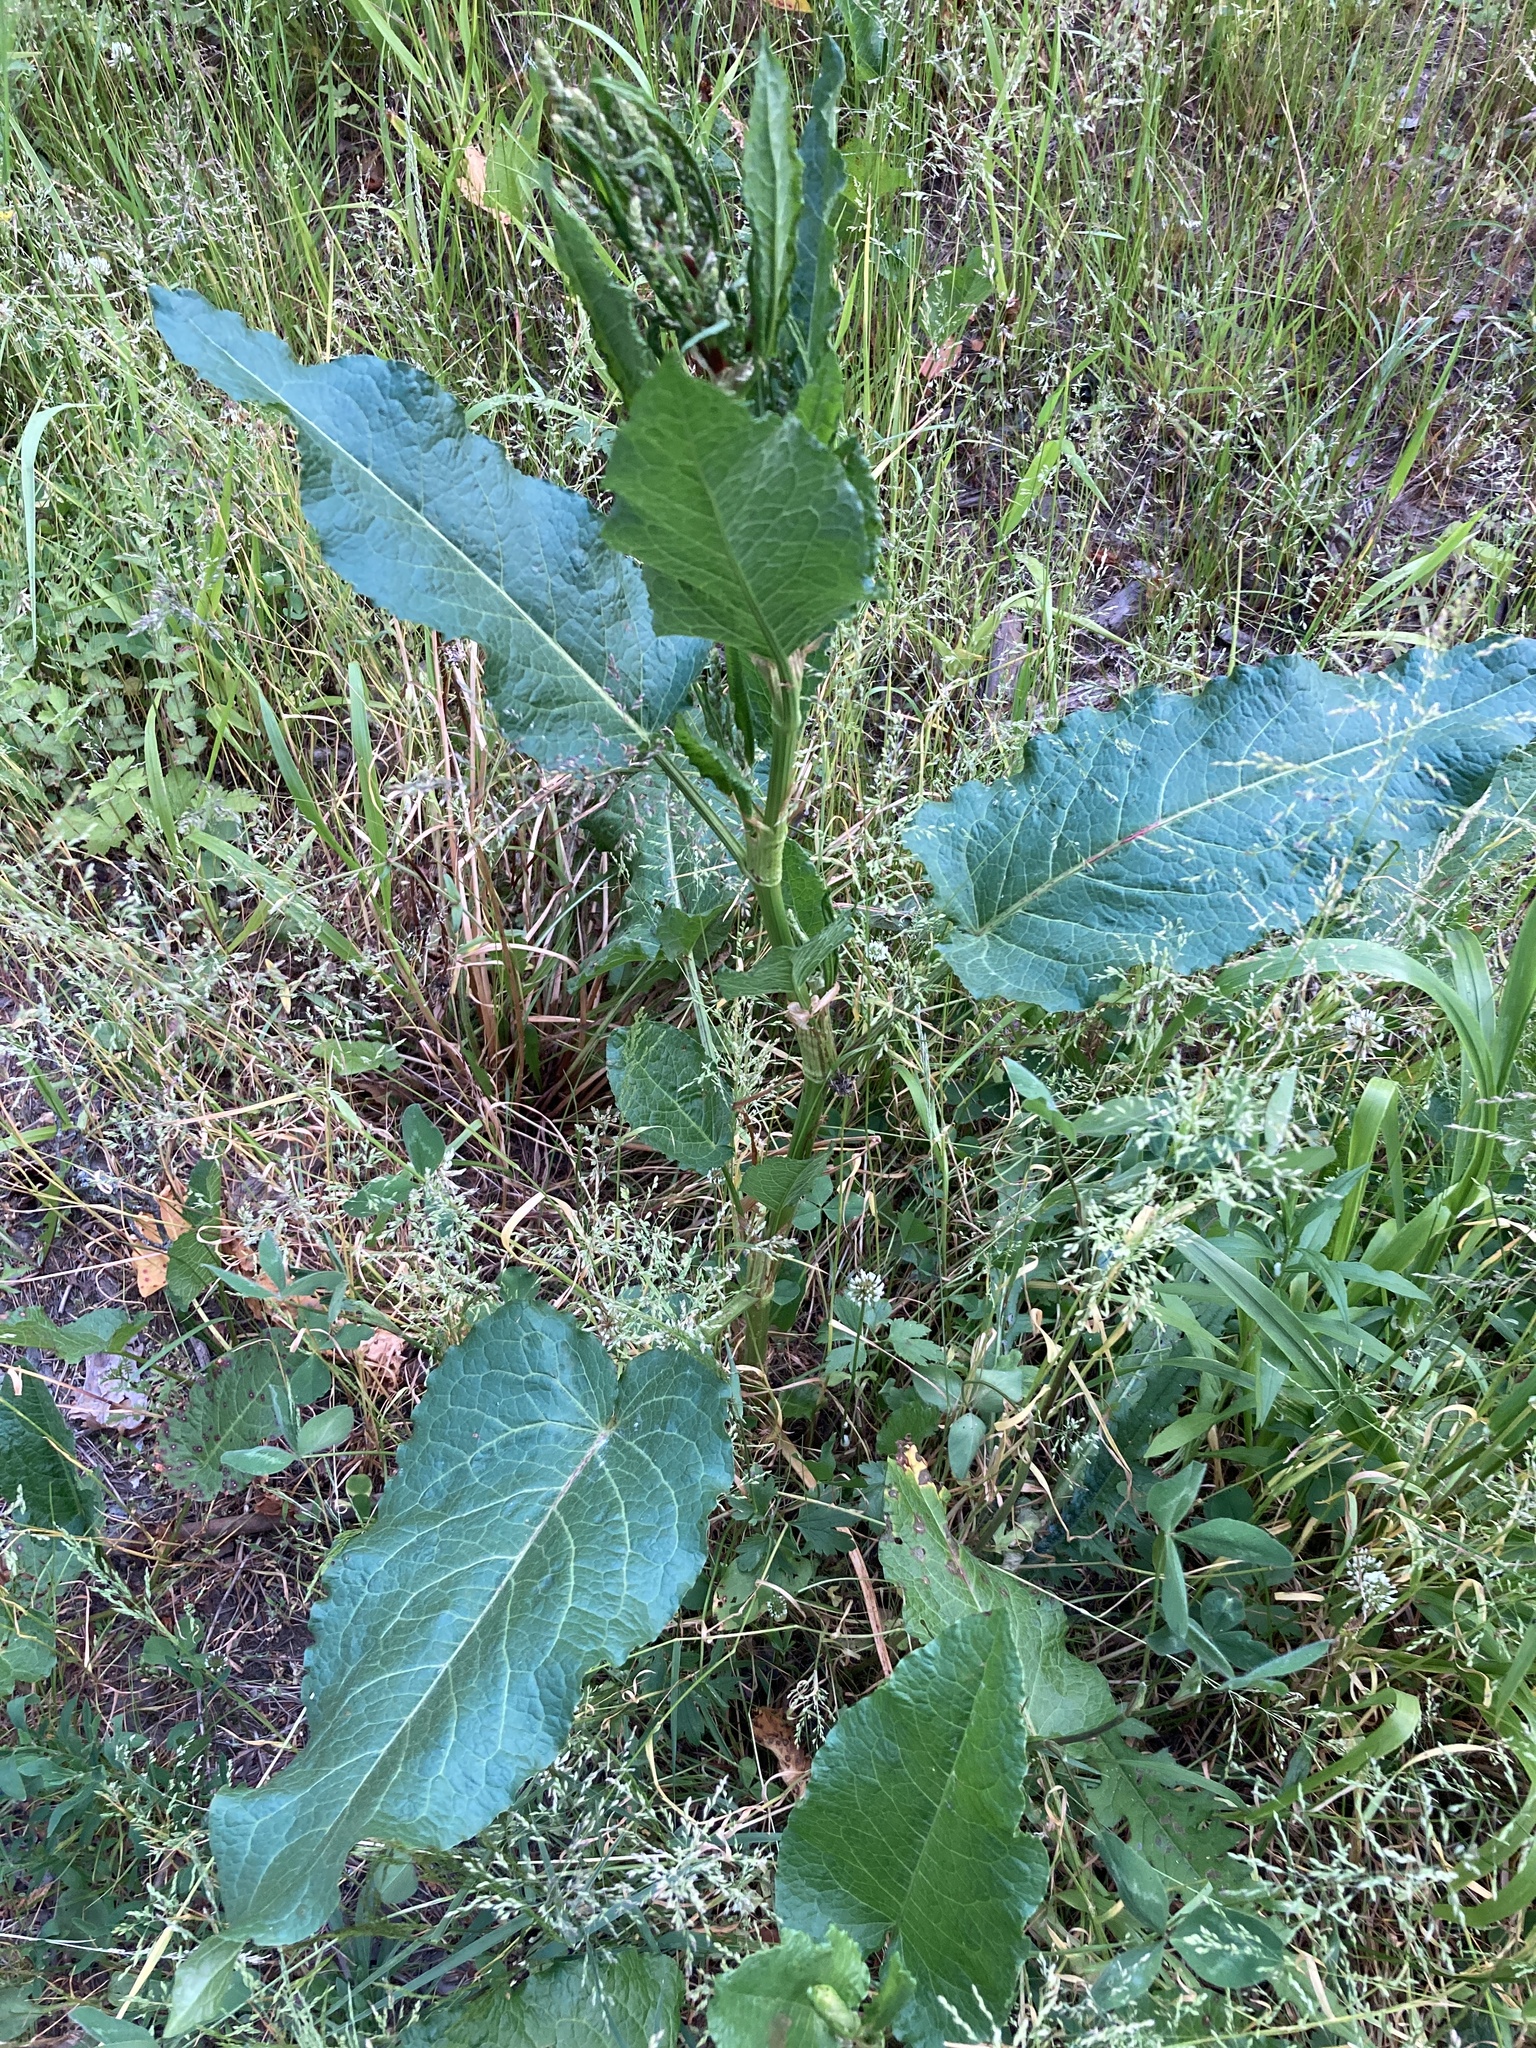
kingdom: Plantae
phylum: Tracheophyta
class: Magnoliopsida
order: Caryophyllales
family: Polygonaceae
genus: Rumex
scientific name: Rumex obtusifolius
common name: Bitter dock
